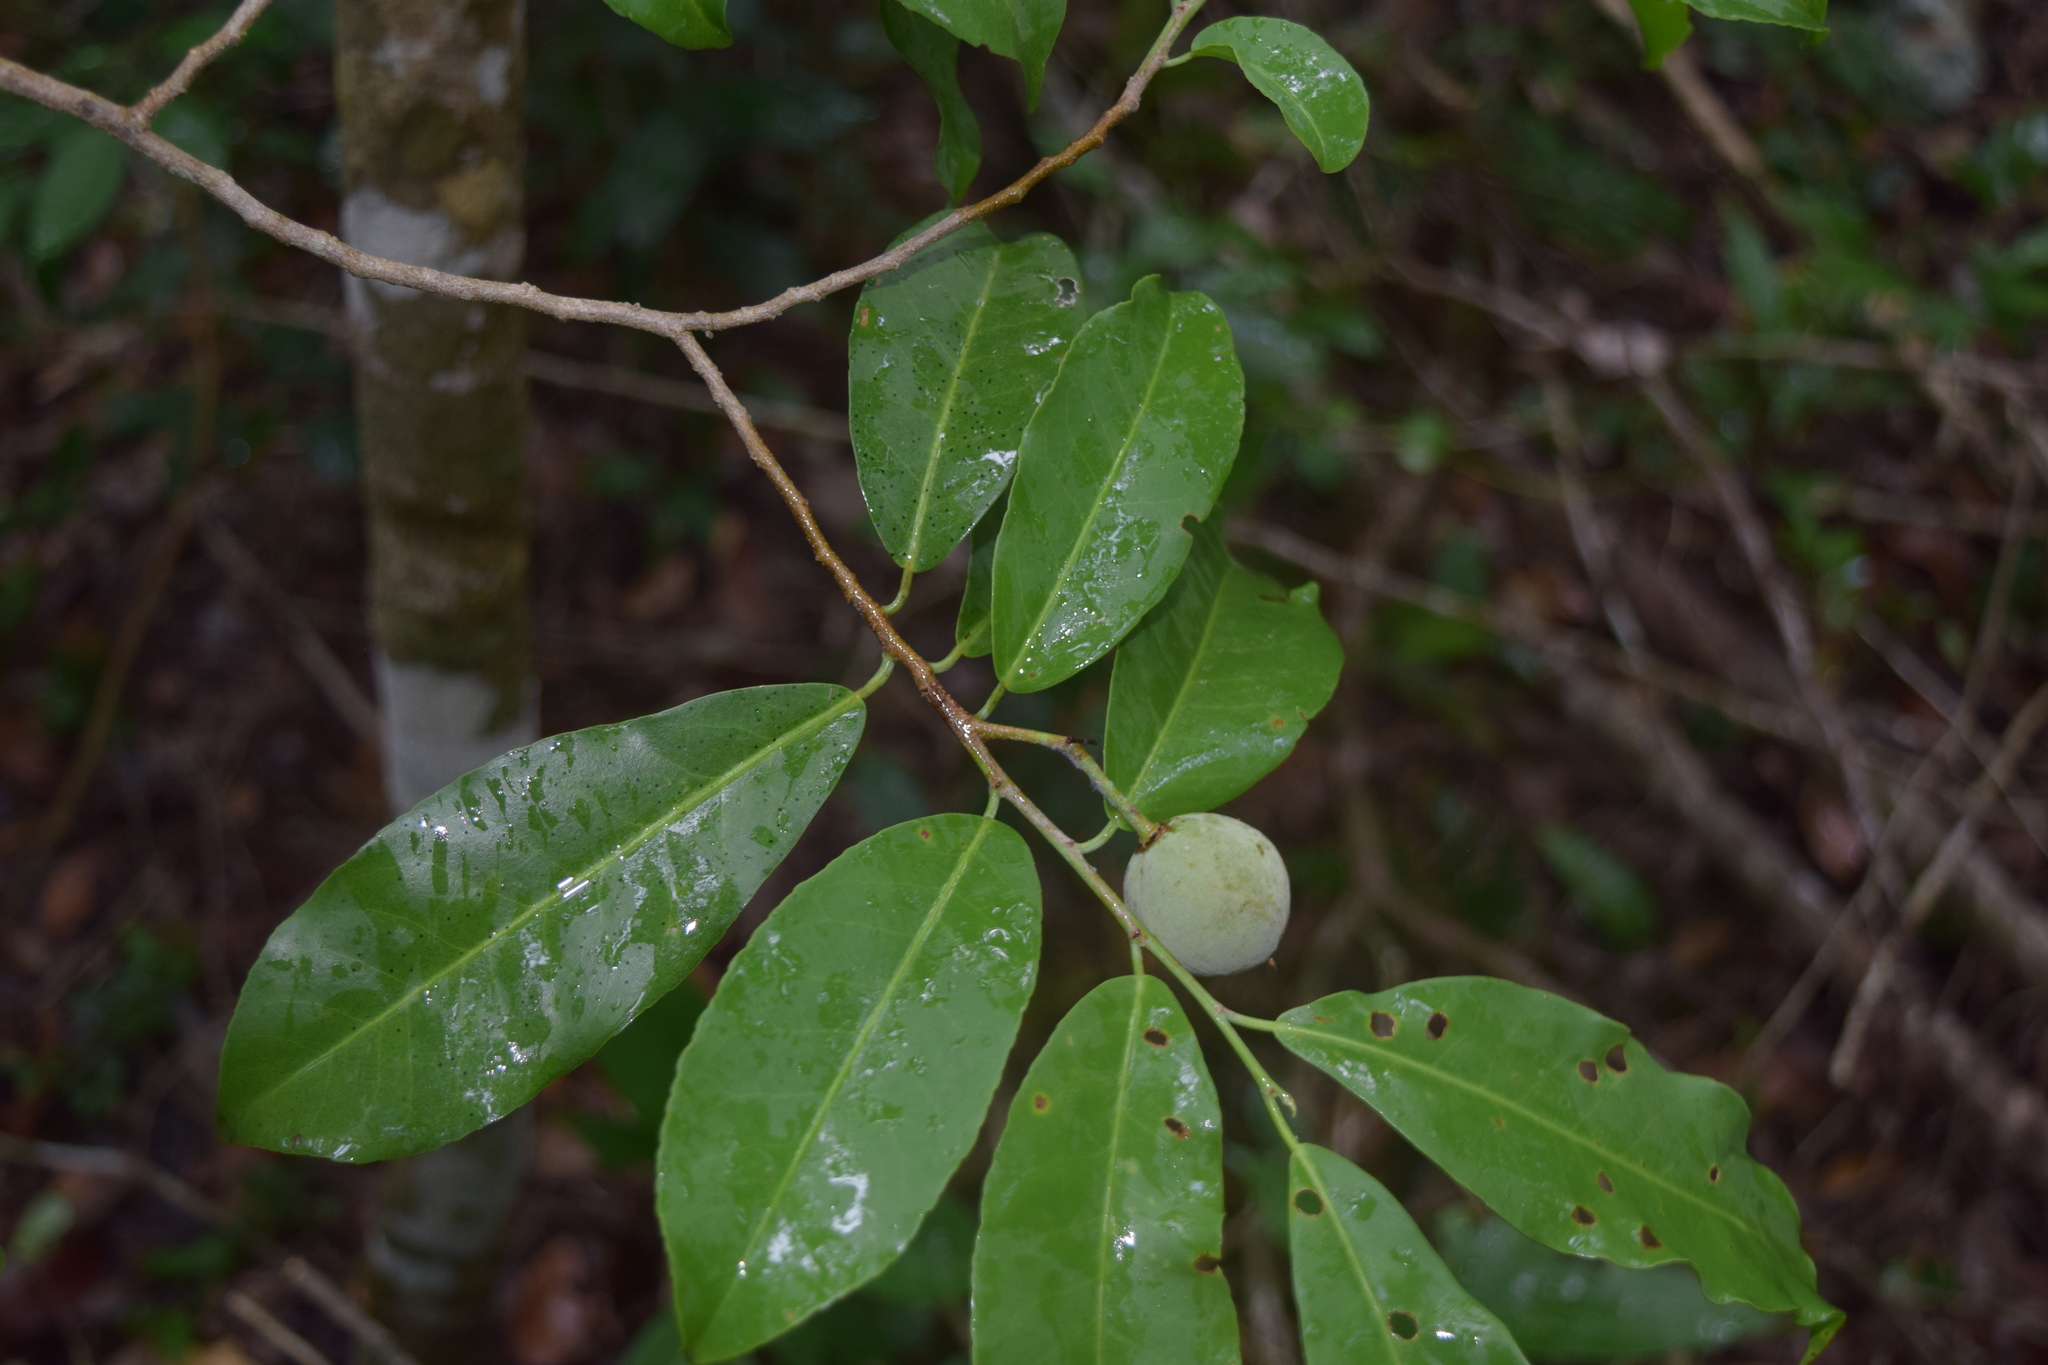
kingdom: Plantae
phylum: Tracheophyta
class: Magnoliopsida
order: Malpighiales
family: Salicaceae
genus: Casearia
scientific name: Casearia thamnia
